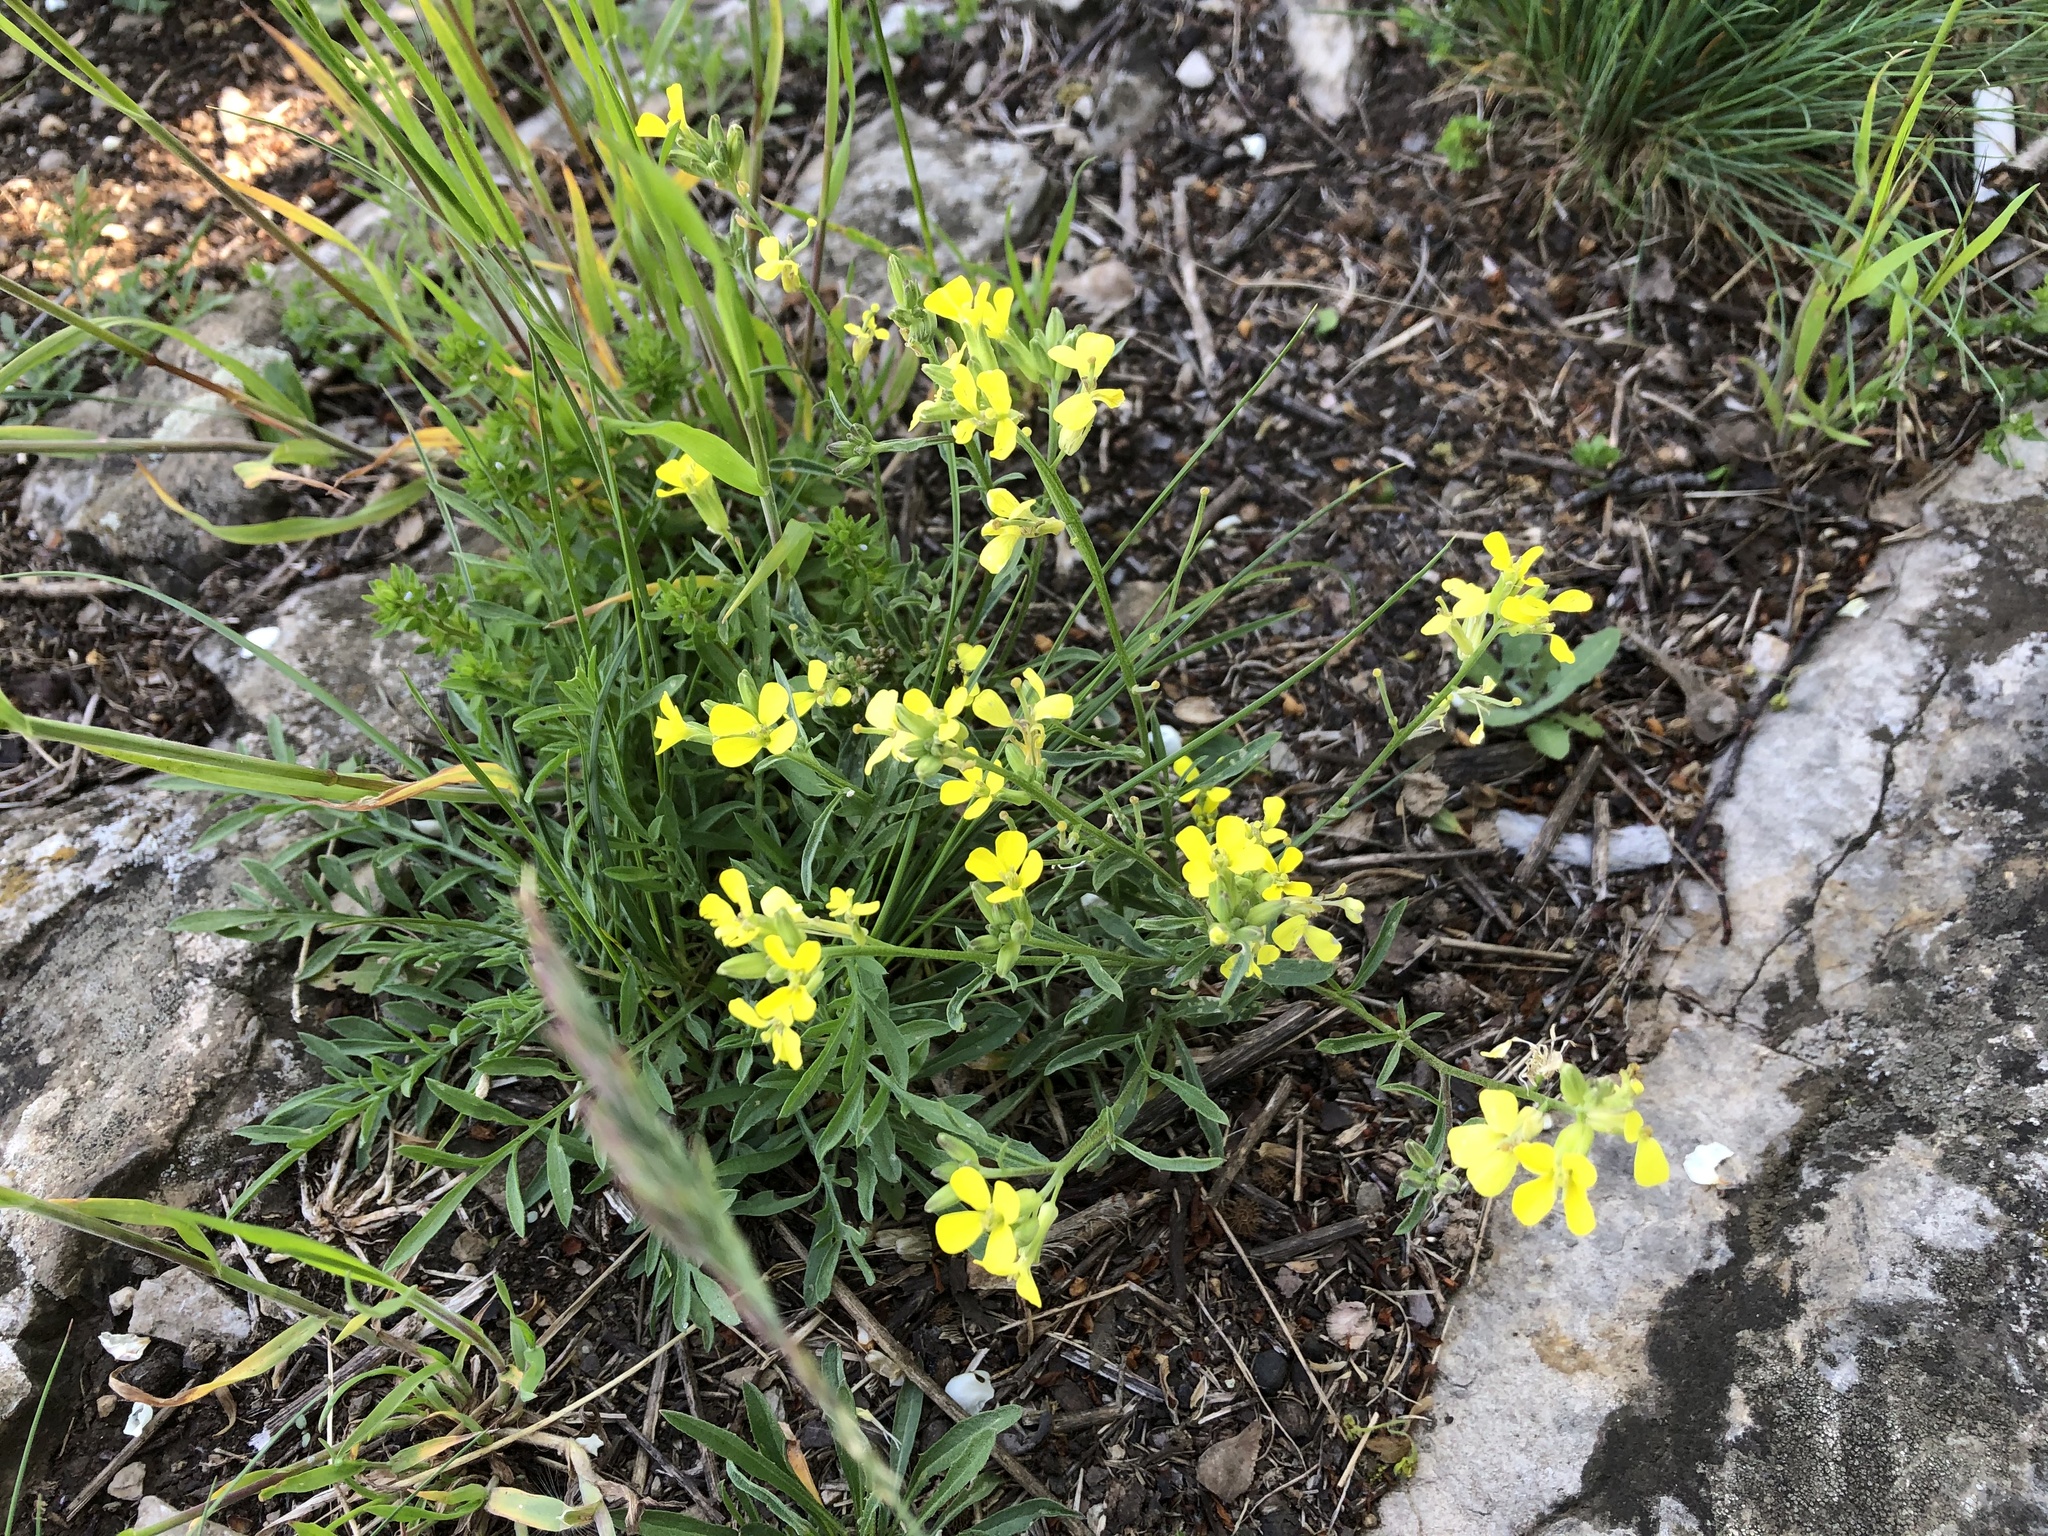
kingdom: Plantae
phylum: Tracheophyta
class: Magnoliopsida
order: Brassicales
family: Brassicaceae
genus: Erysimum
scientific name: Erysimum crepidifolium
